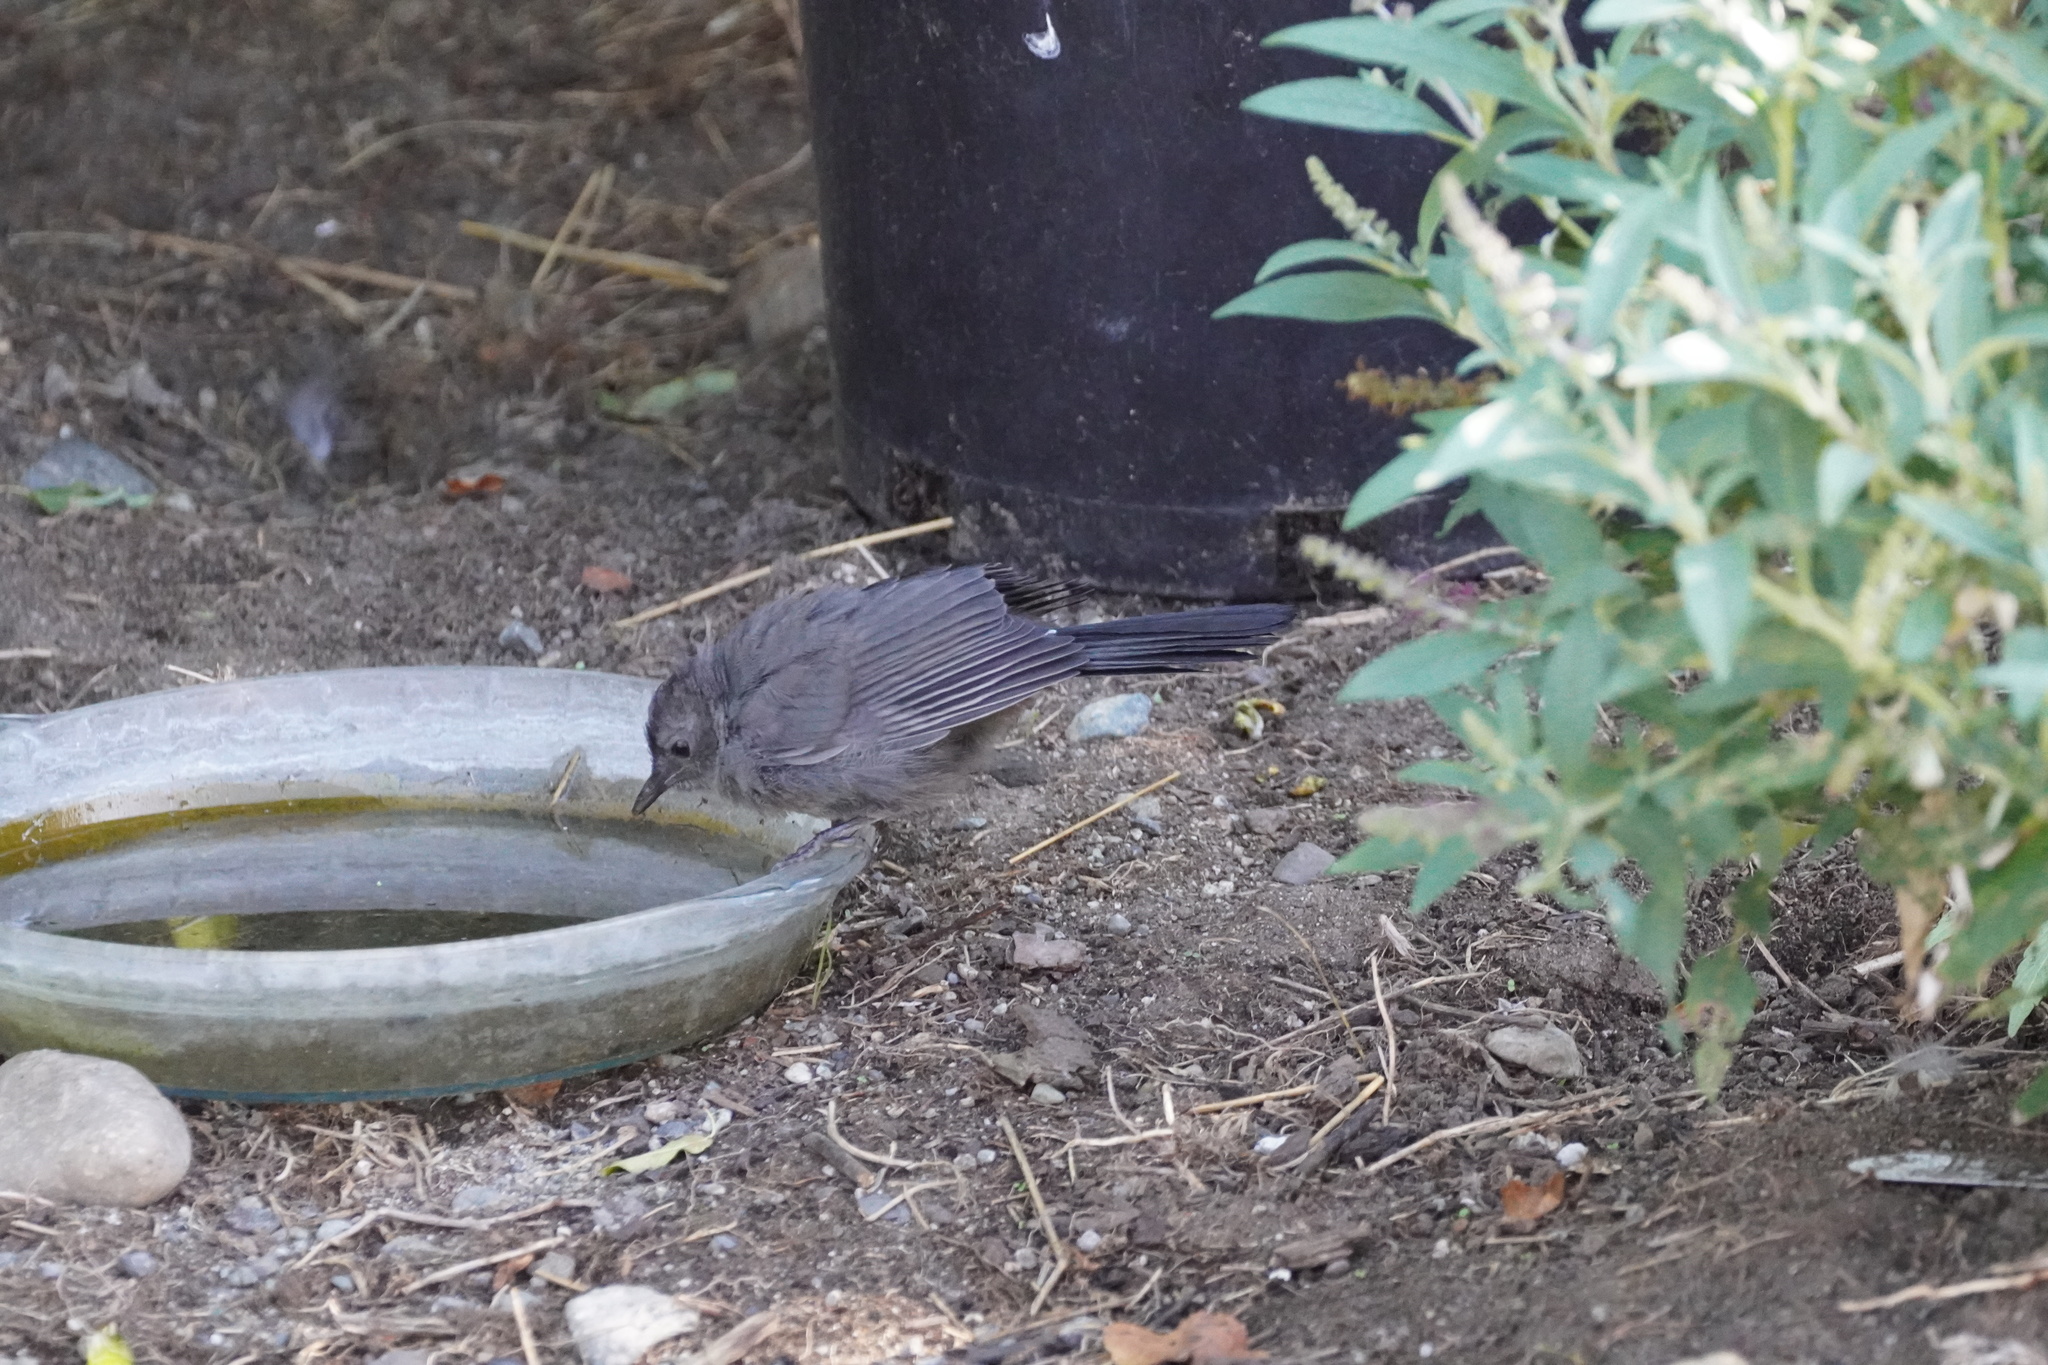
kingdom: Animalia
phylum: Chordata
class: Aves
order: Passeriformes
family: Mimidae
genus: Dumetella
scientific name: Dumetella carolinensis
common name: Gray catbird
